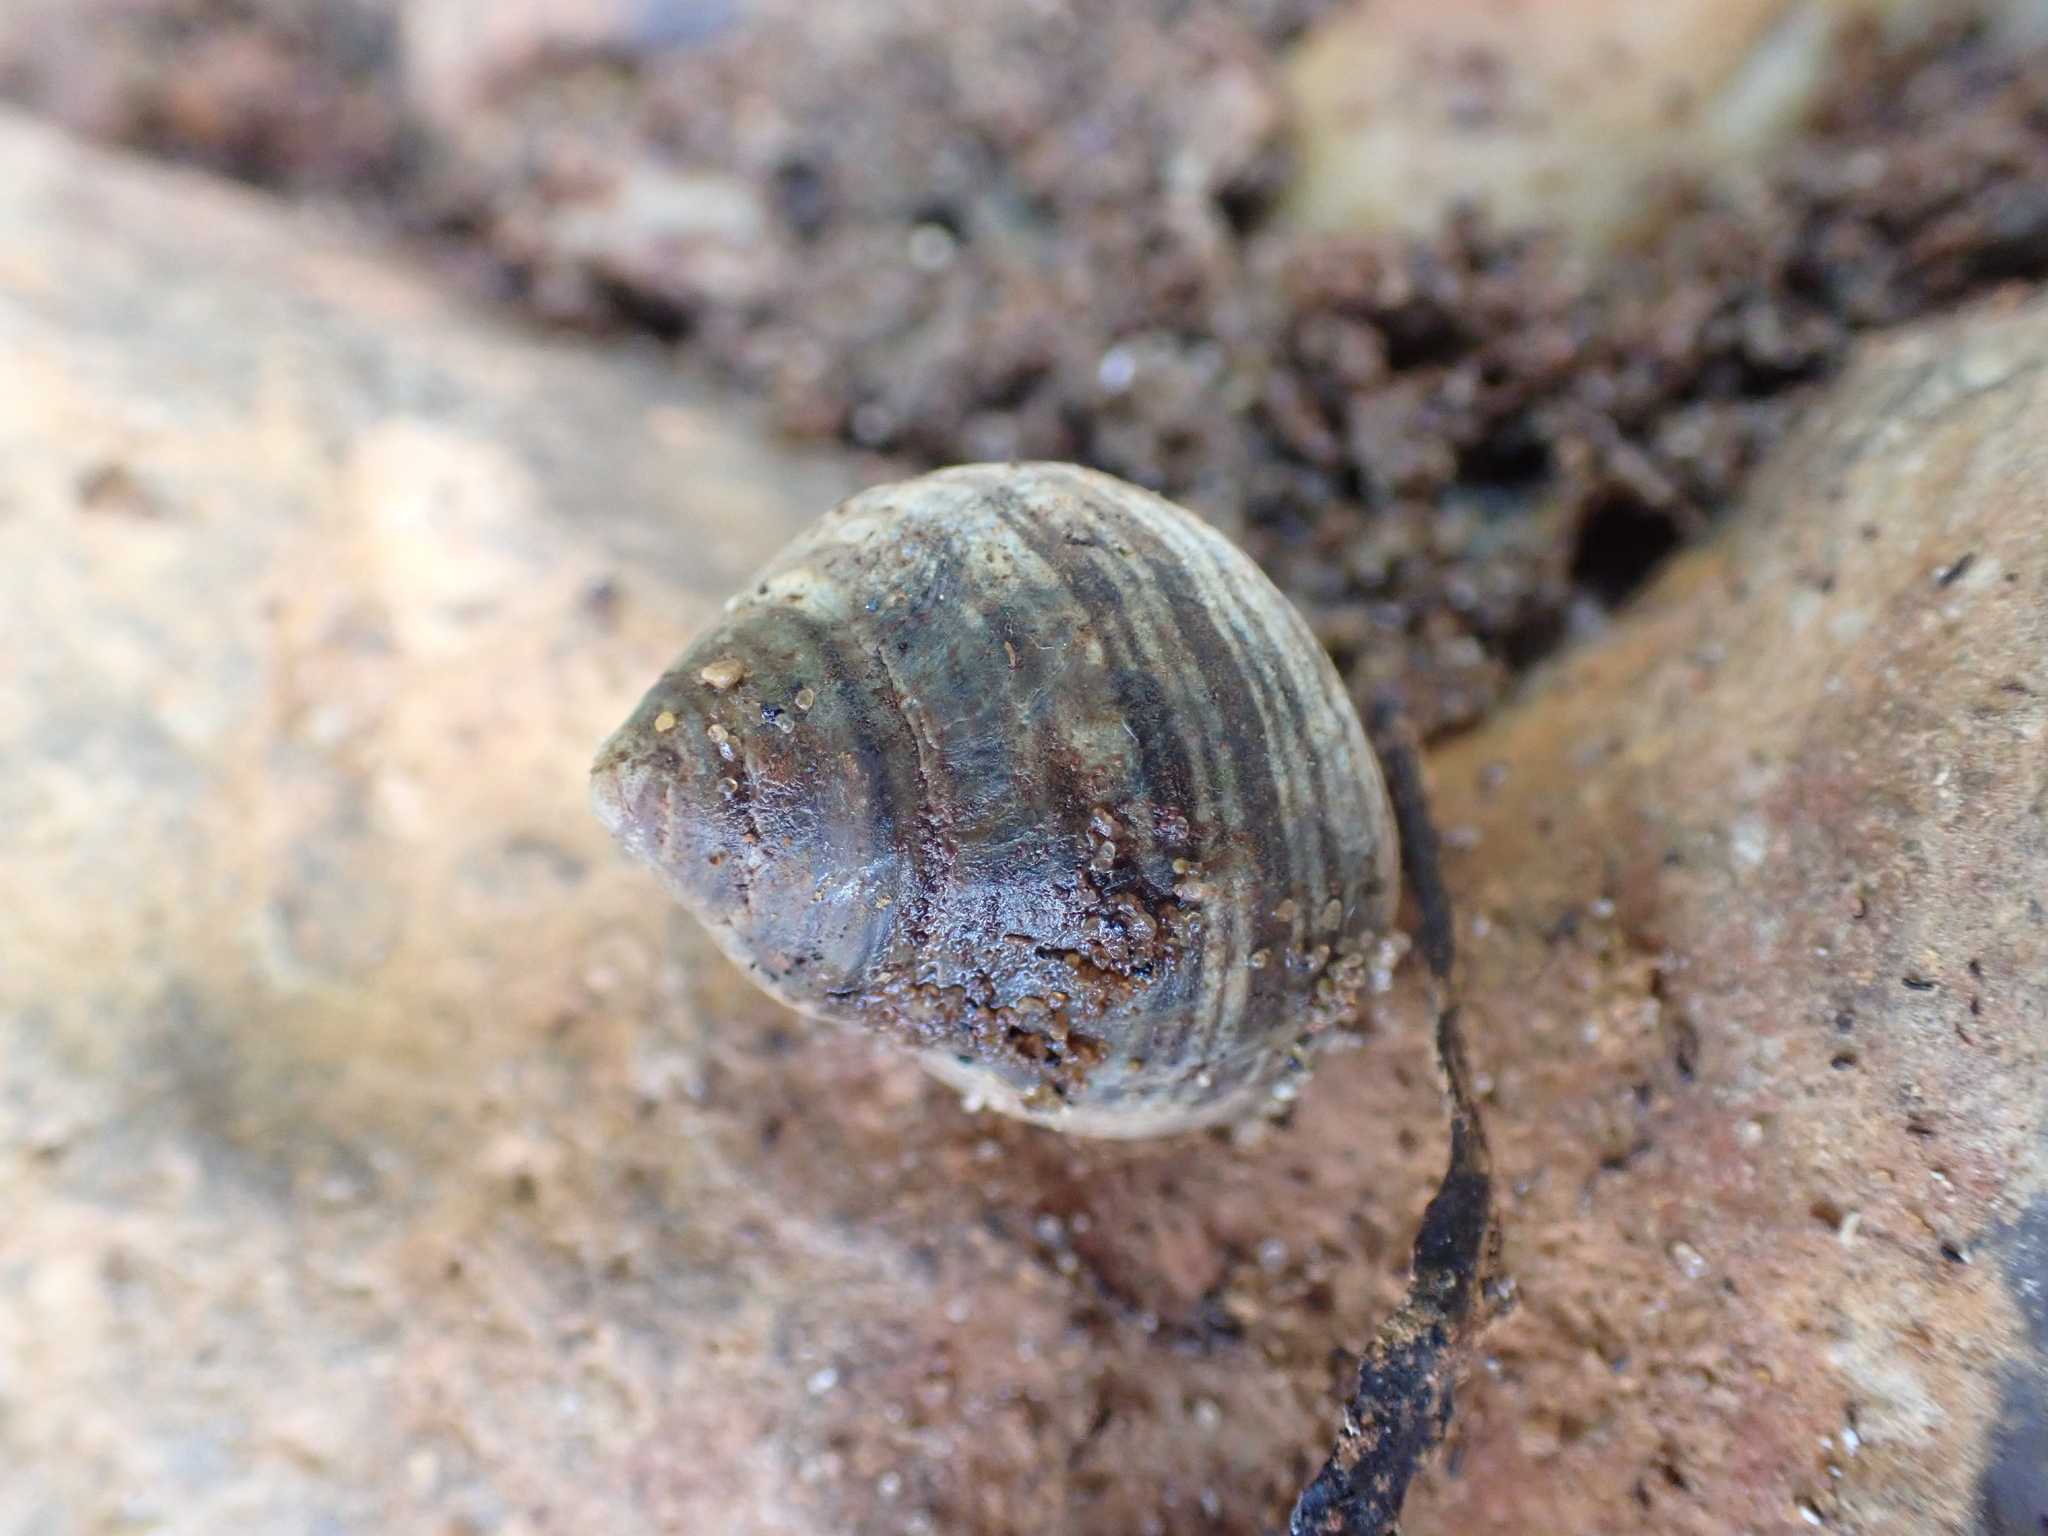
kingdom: Animalia
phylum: Mollusca
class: Gastropoda
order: Littorinimorpha
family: Littorinidae
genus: Littorina
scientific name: Littorina littorea
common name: Common periwinkle
